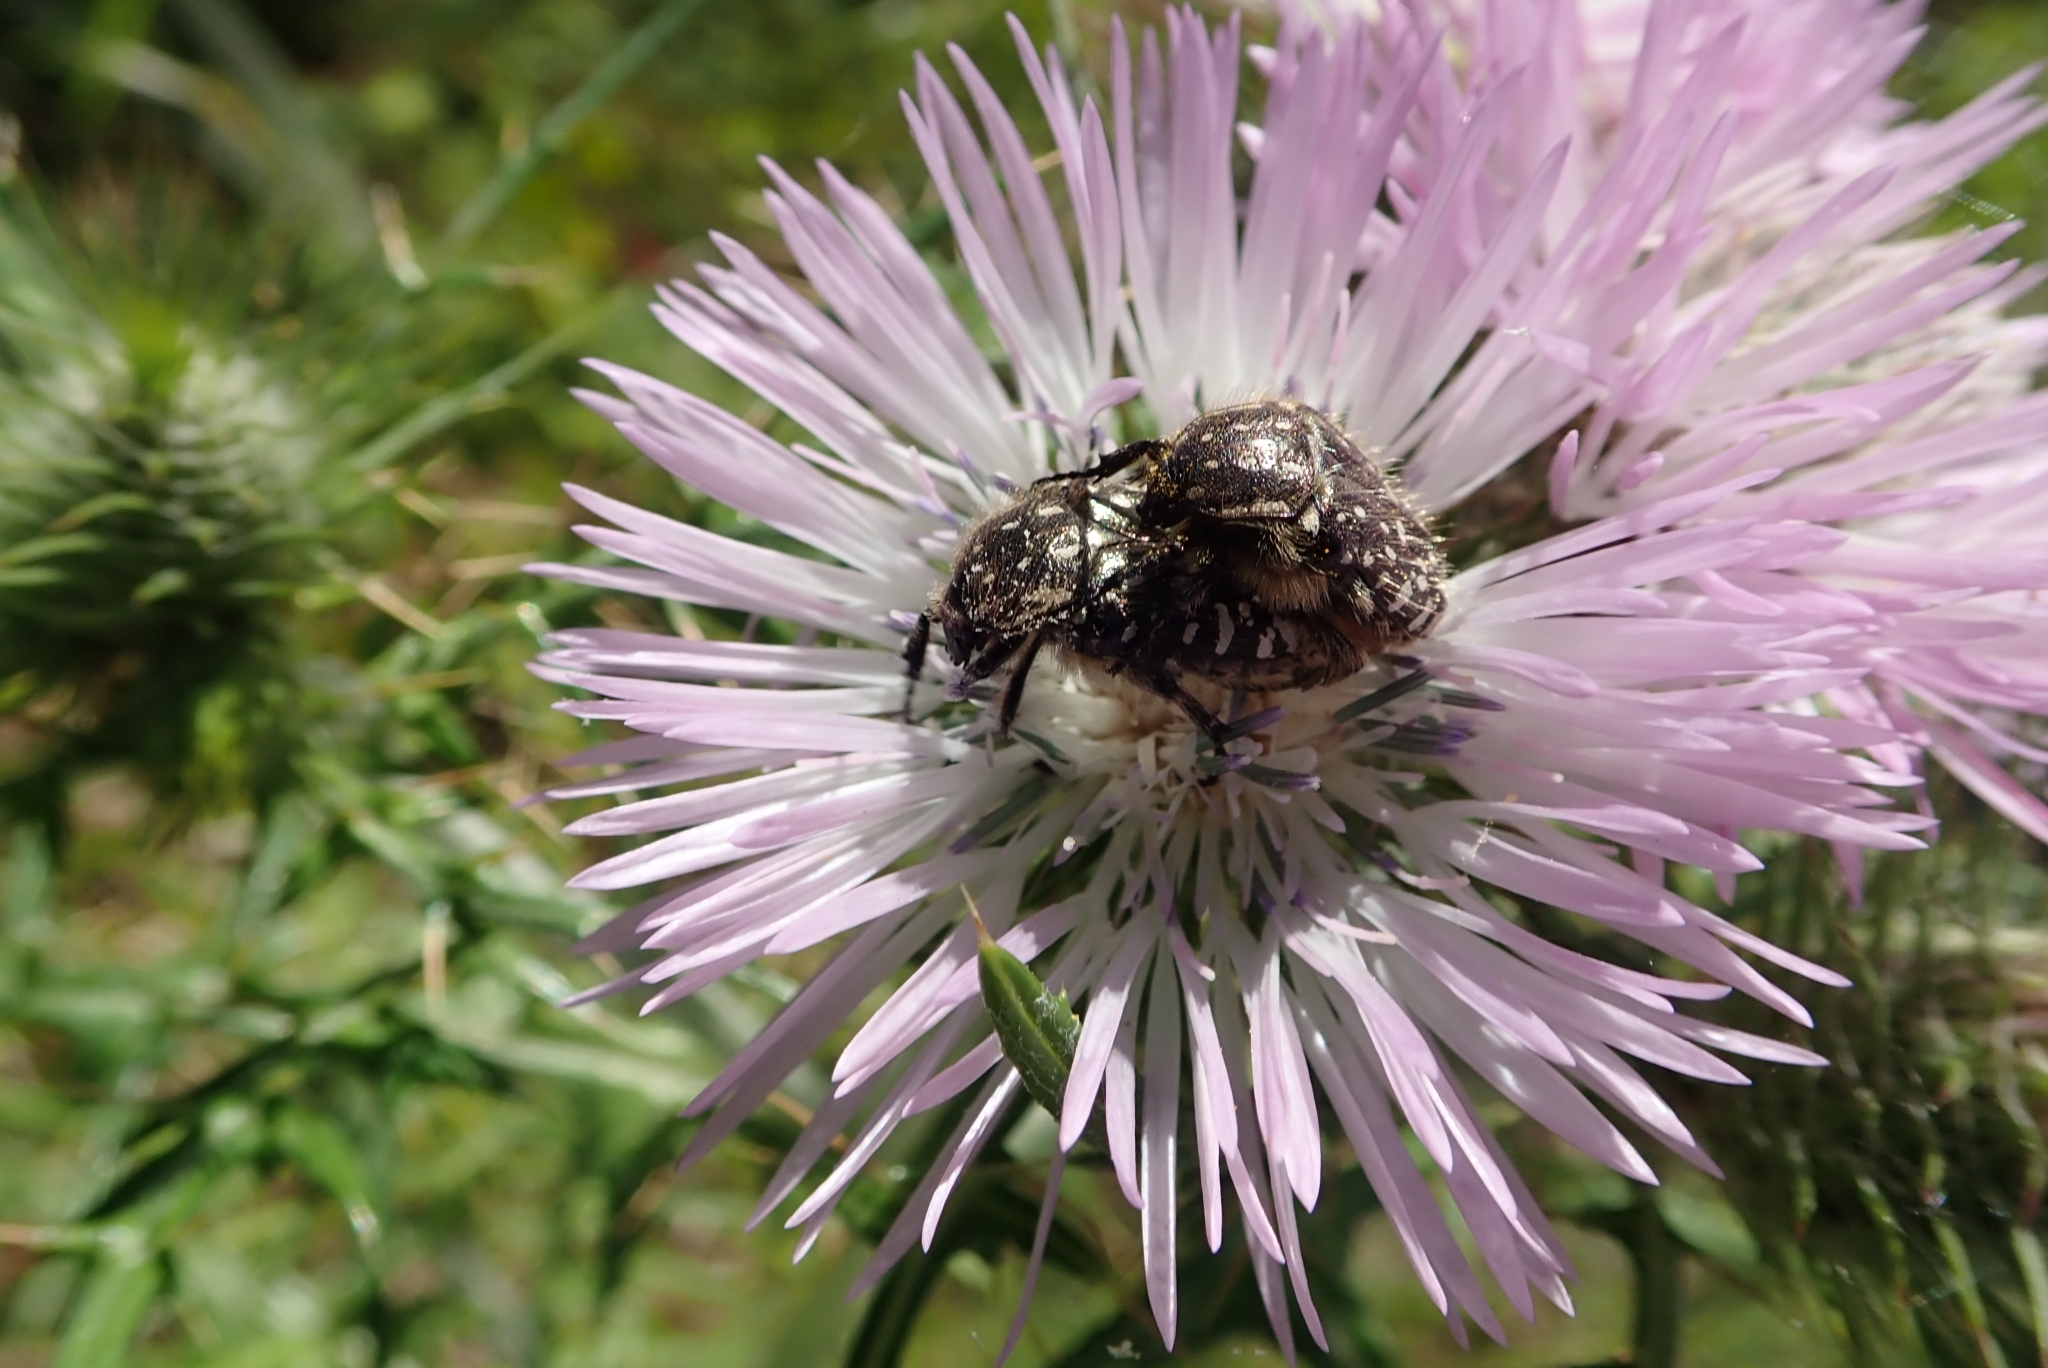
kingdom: Animalia
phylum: Arthropoda
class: Insecta
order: Coleoptera
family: Scarabaeidae
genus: Oxythyrea
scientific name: Oxythyrea funesta
